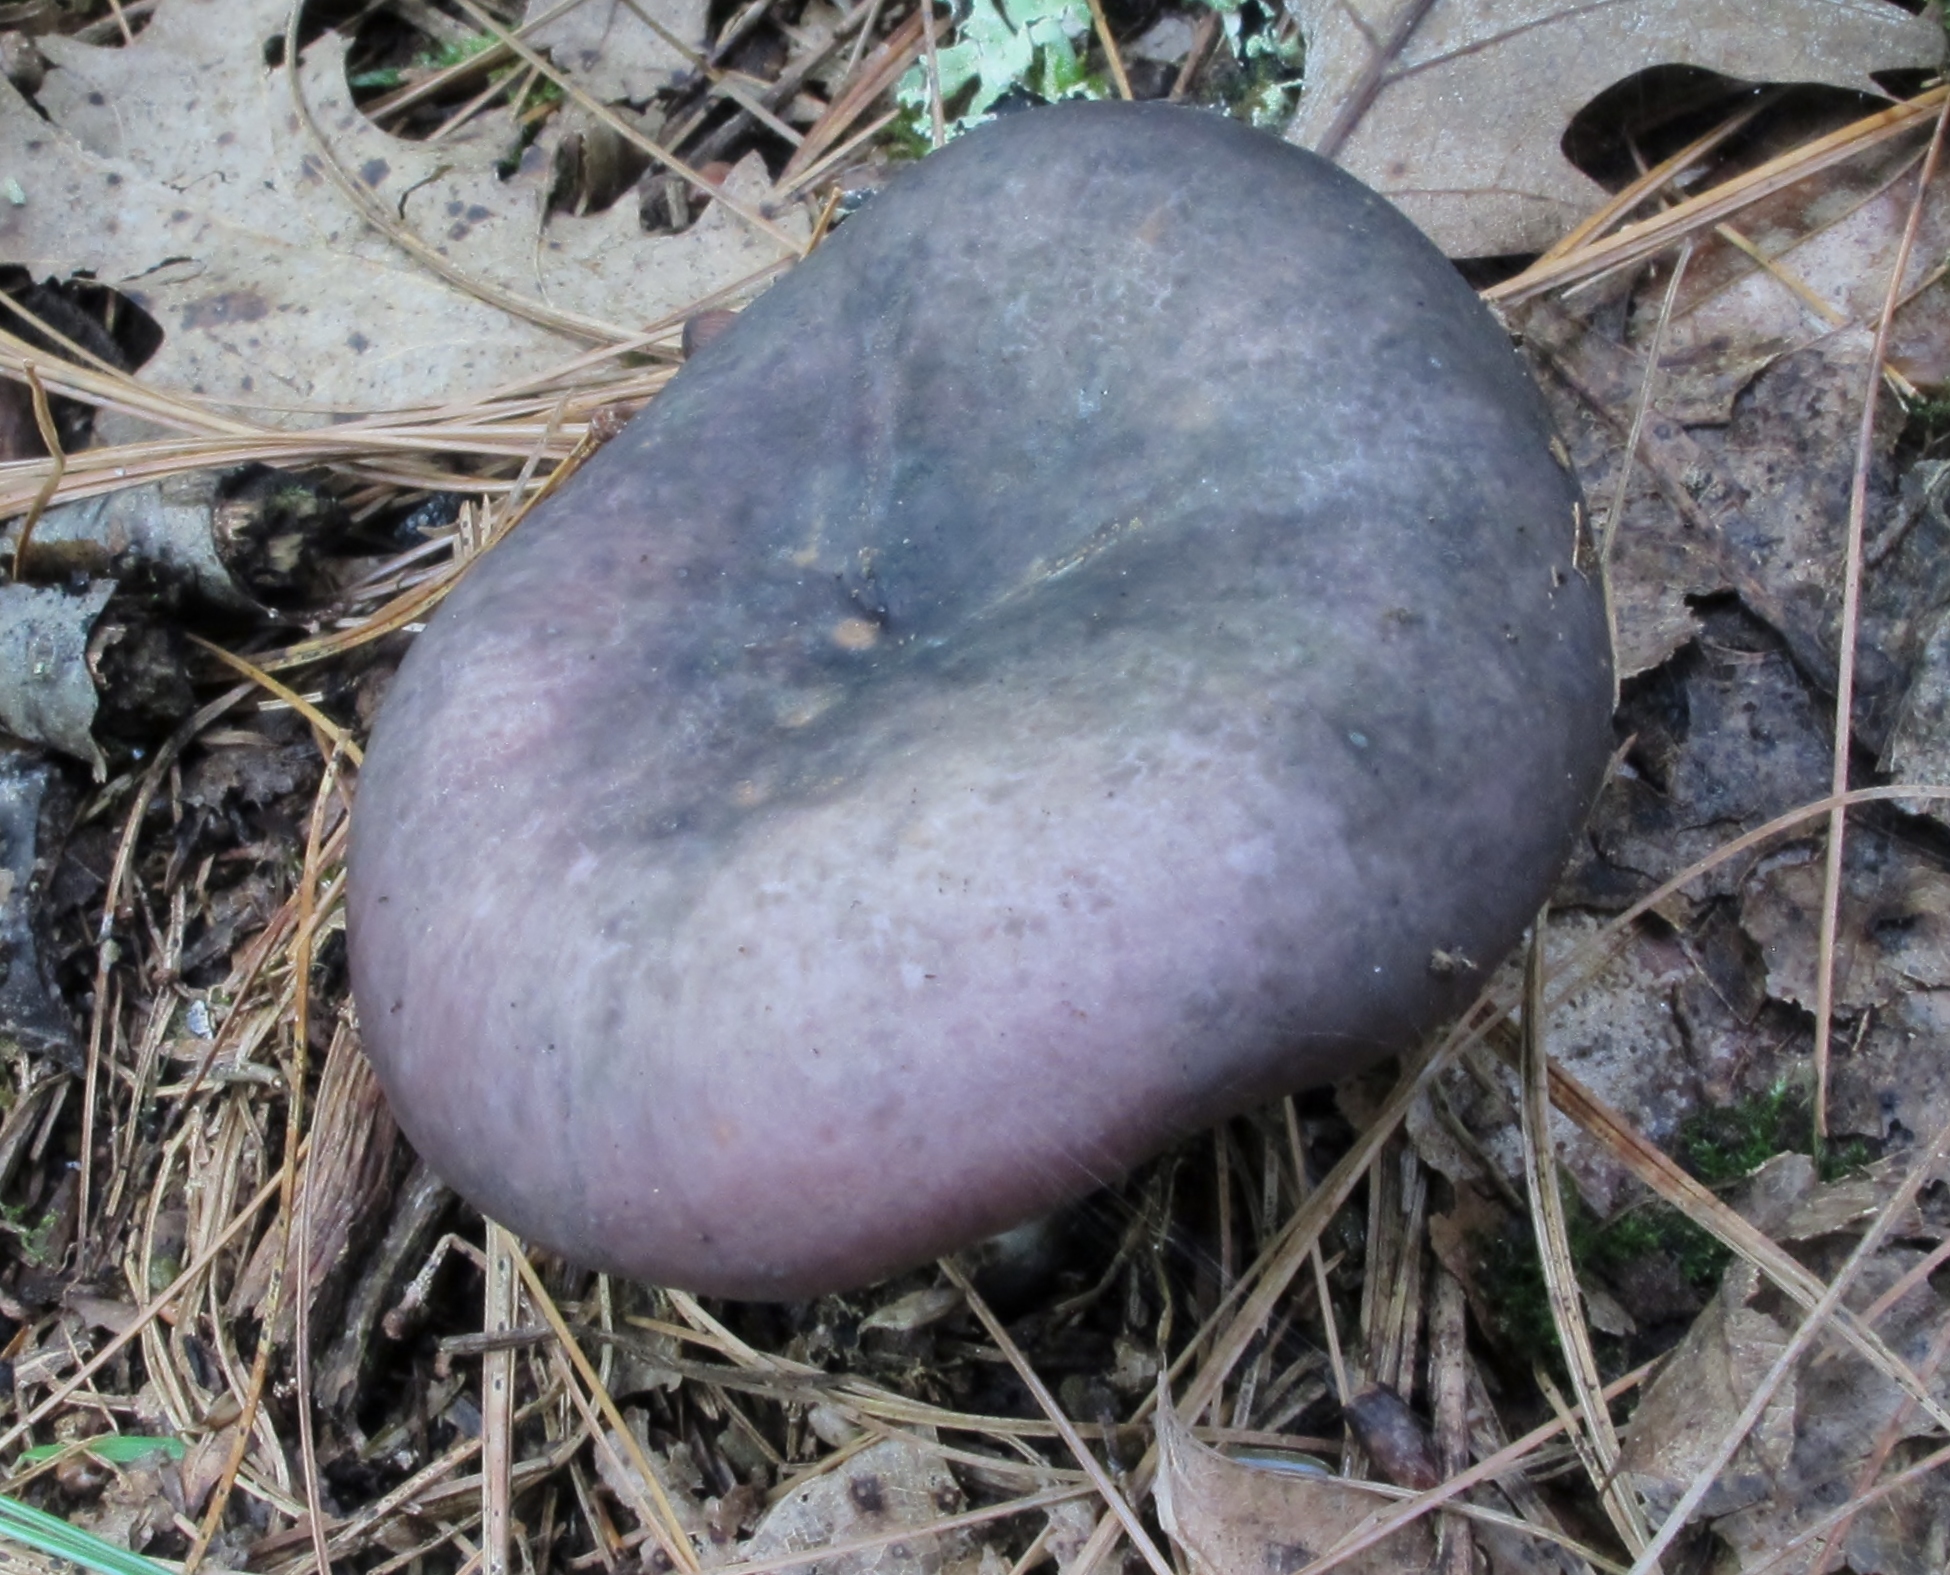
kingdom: Fungi
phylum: Basidiomycota
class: Agaricomycetes
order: Russulales
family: Russulaceae
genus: Russula
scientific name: Russula cyanoxantha
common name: Charcoal burner
